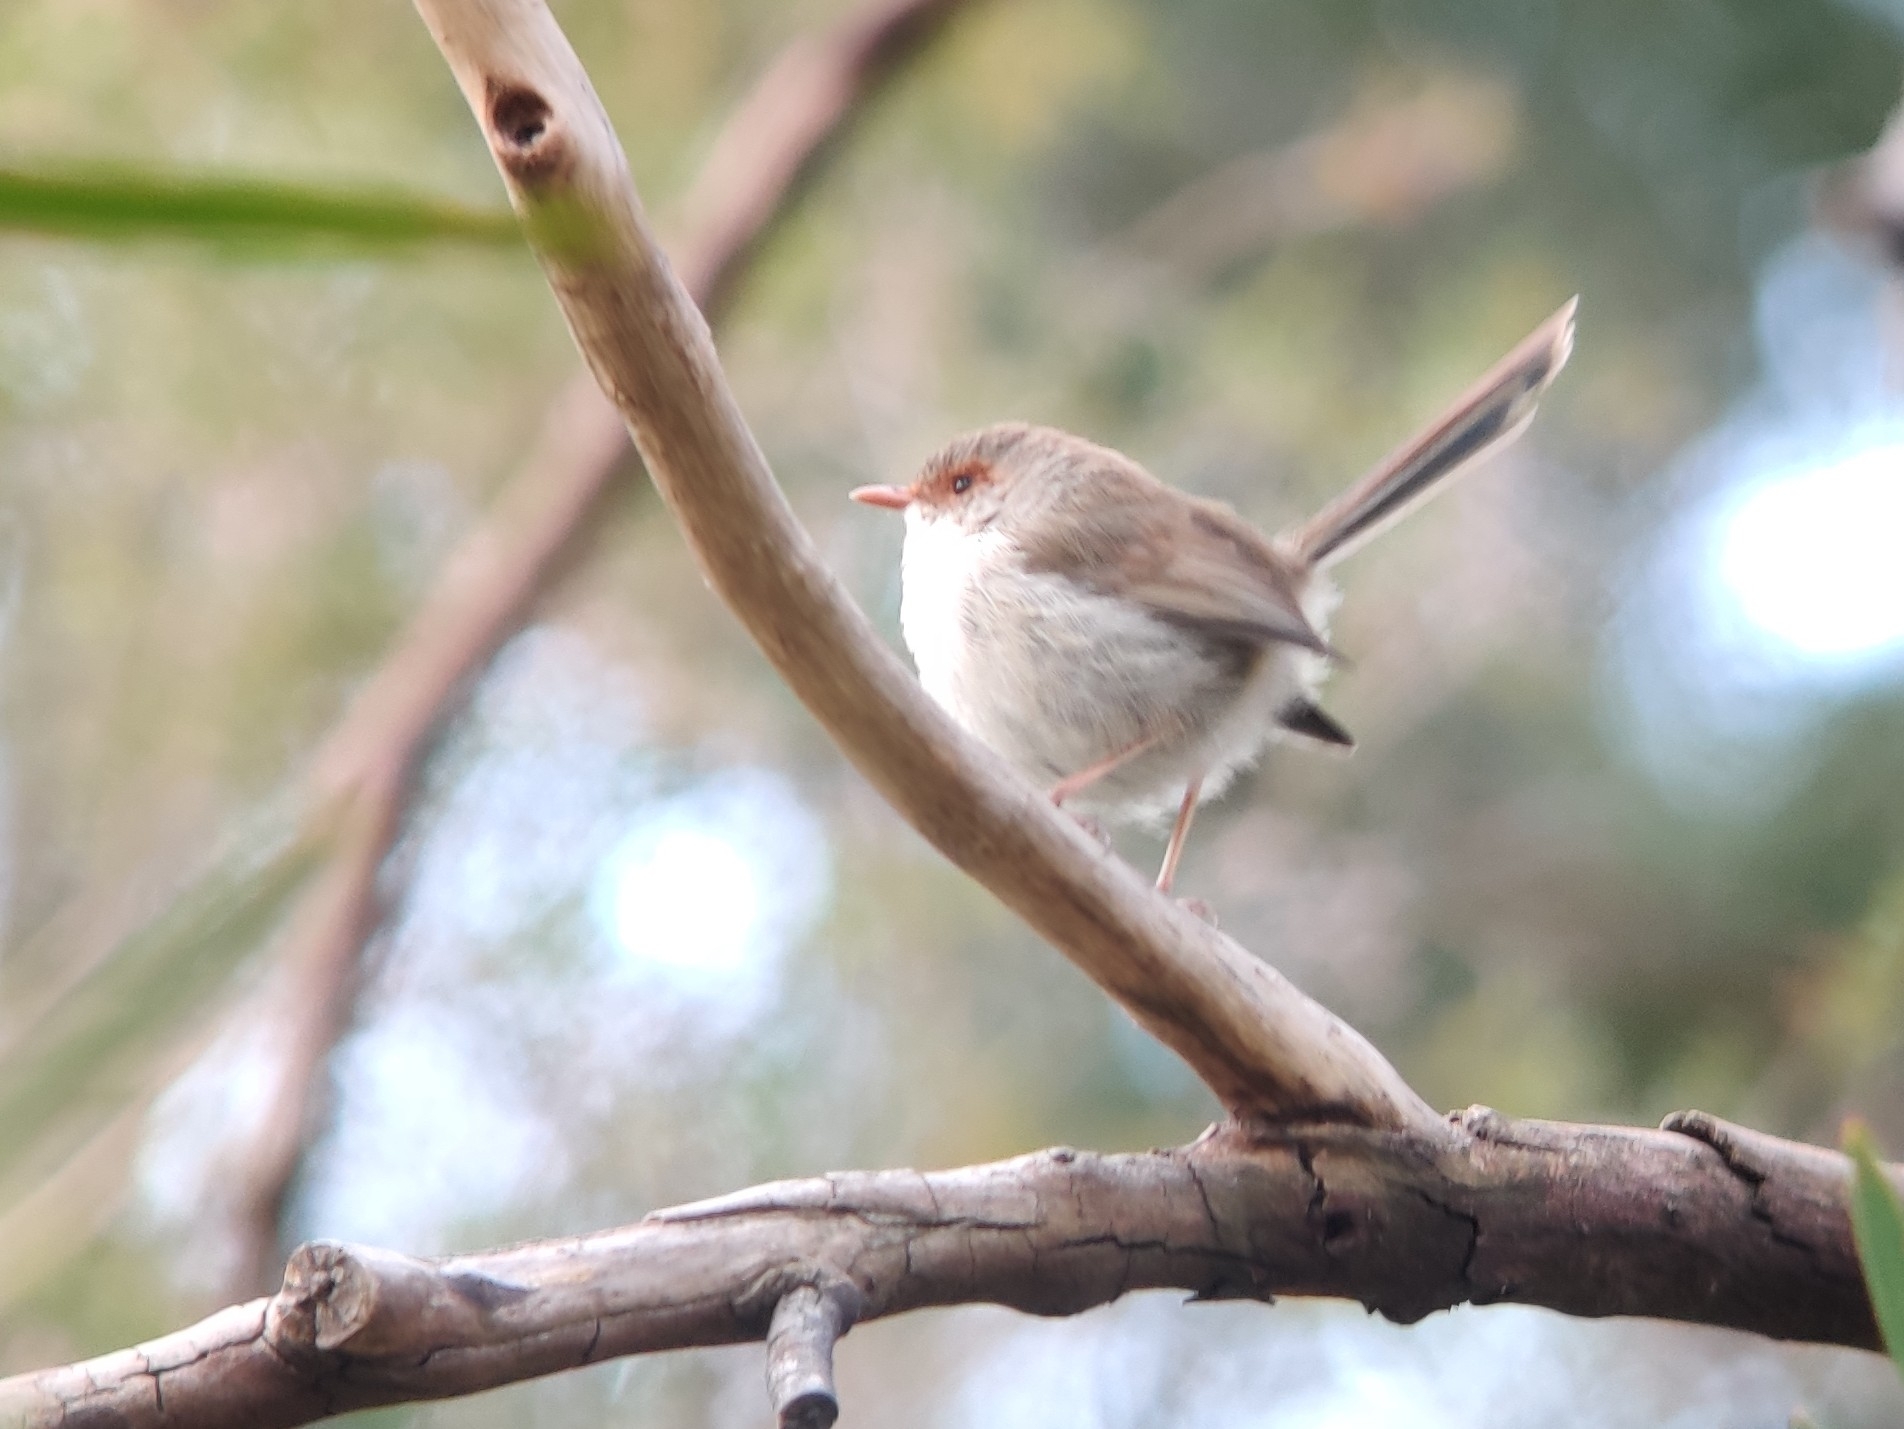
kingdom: Animalia
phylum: Chordata
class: Aves
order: Passeriformes
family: Maluridae
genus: Malurus
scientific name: Malurus cyaneus
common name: Superb fairywren
